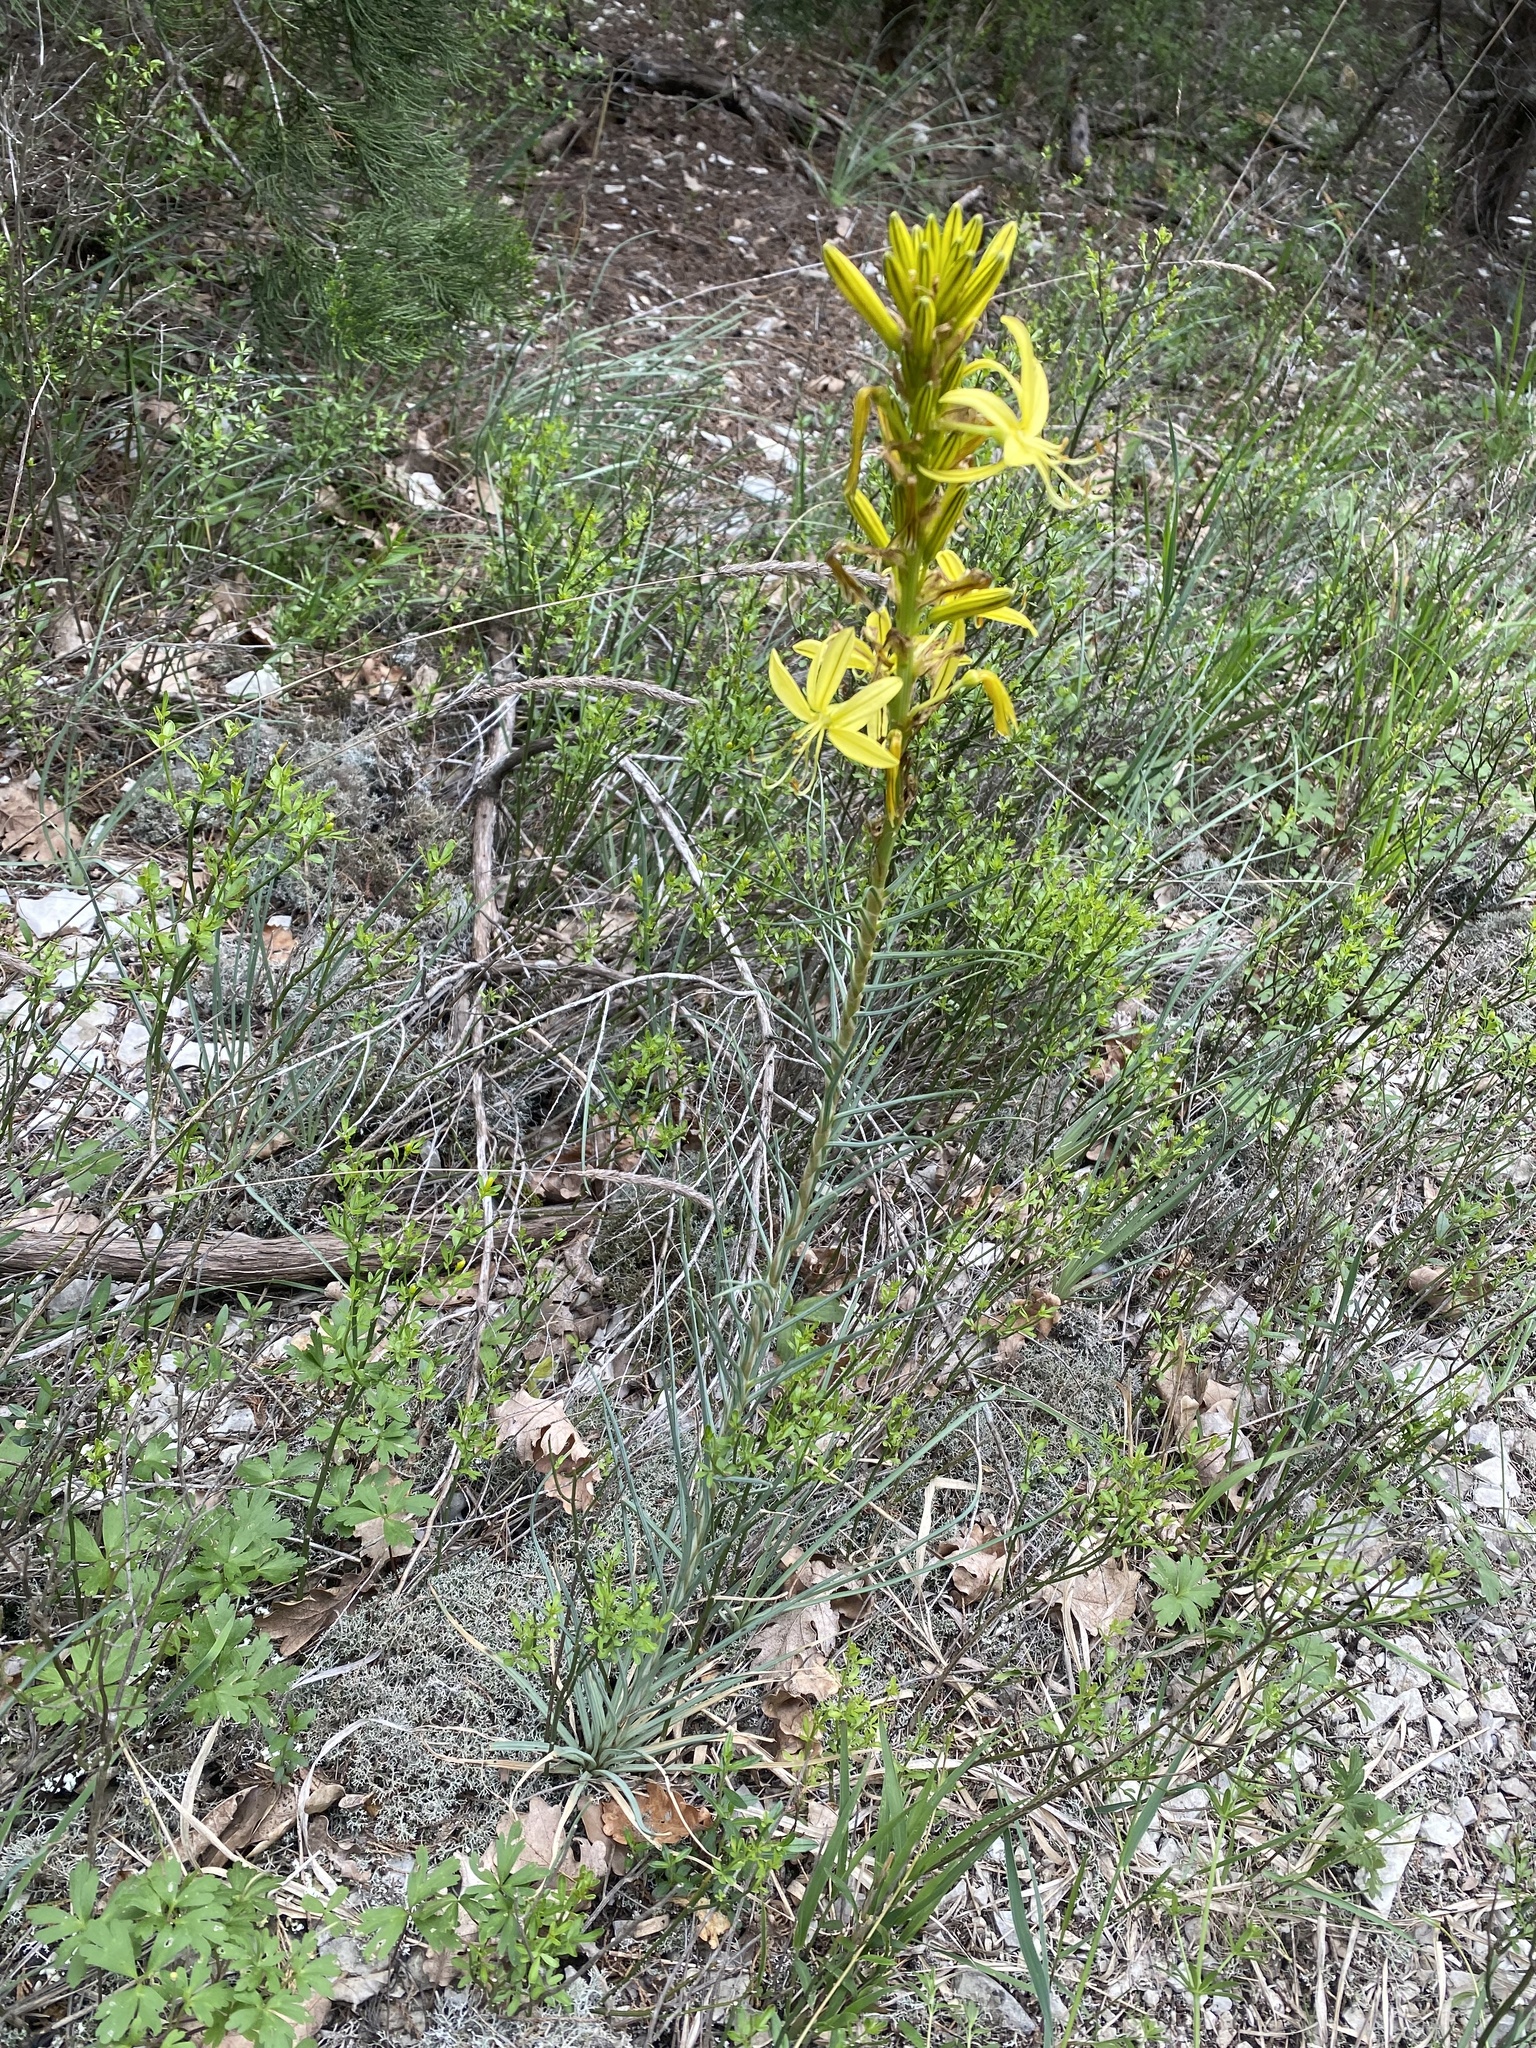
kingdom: Plantae
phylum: Tracheophyta
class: Liliopsida
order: Asparagales
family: Asphodelaceae
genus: Asphodeline
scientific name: Asphodeline lutea
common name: Yellow asphodel
